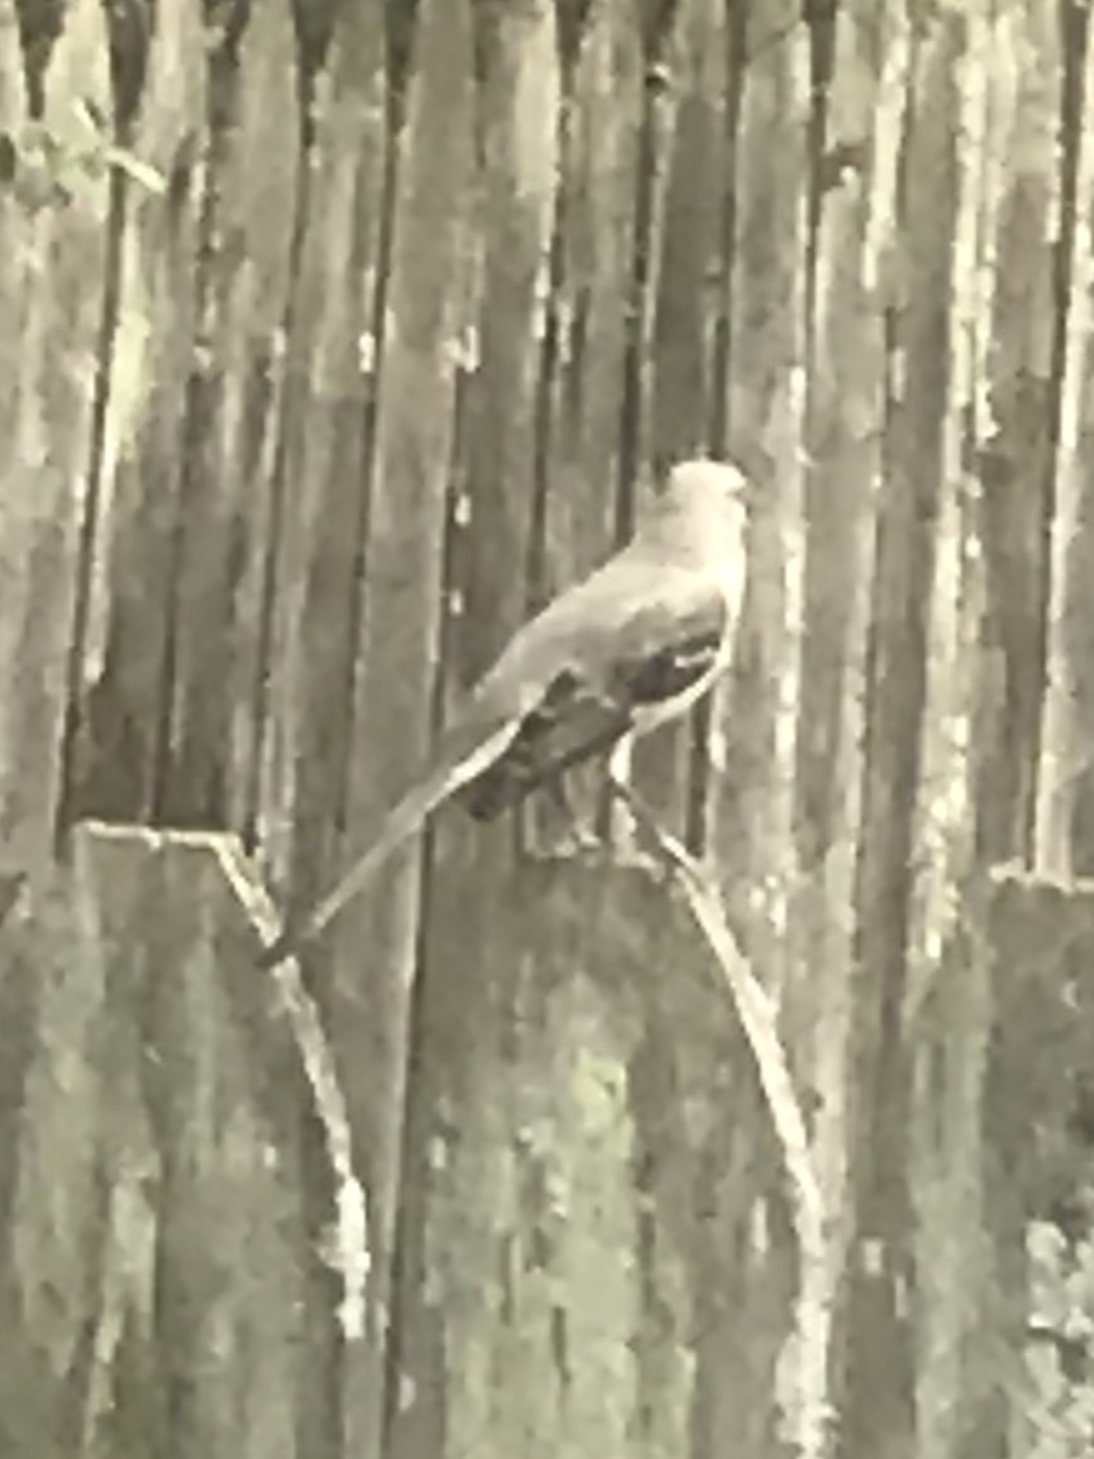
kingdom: Animalia
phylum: Chordata
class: Aves
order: Passeriformes
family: Mimidae
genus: Mimus
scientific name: Mimus polyglottos
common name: Northern mockingbird
